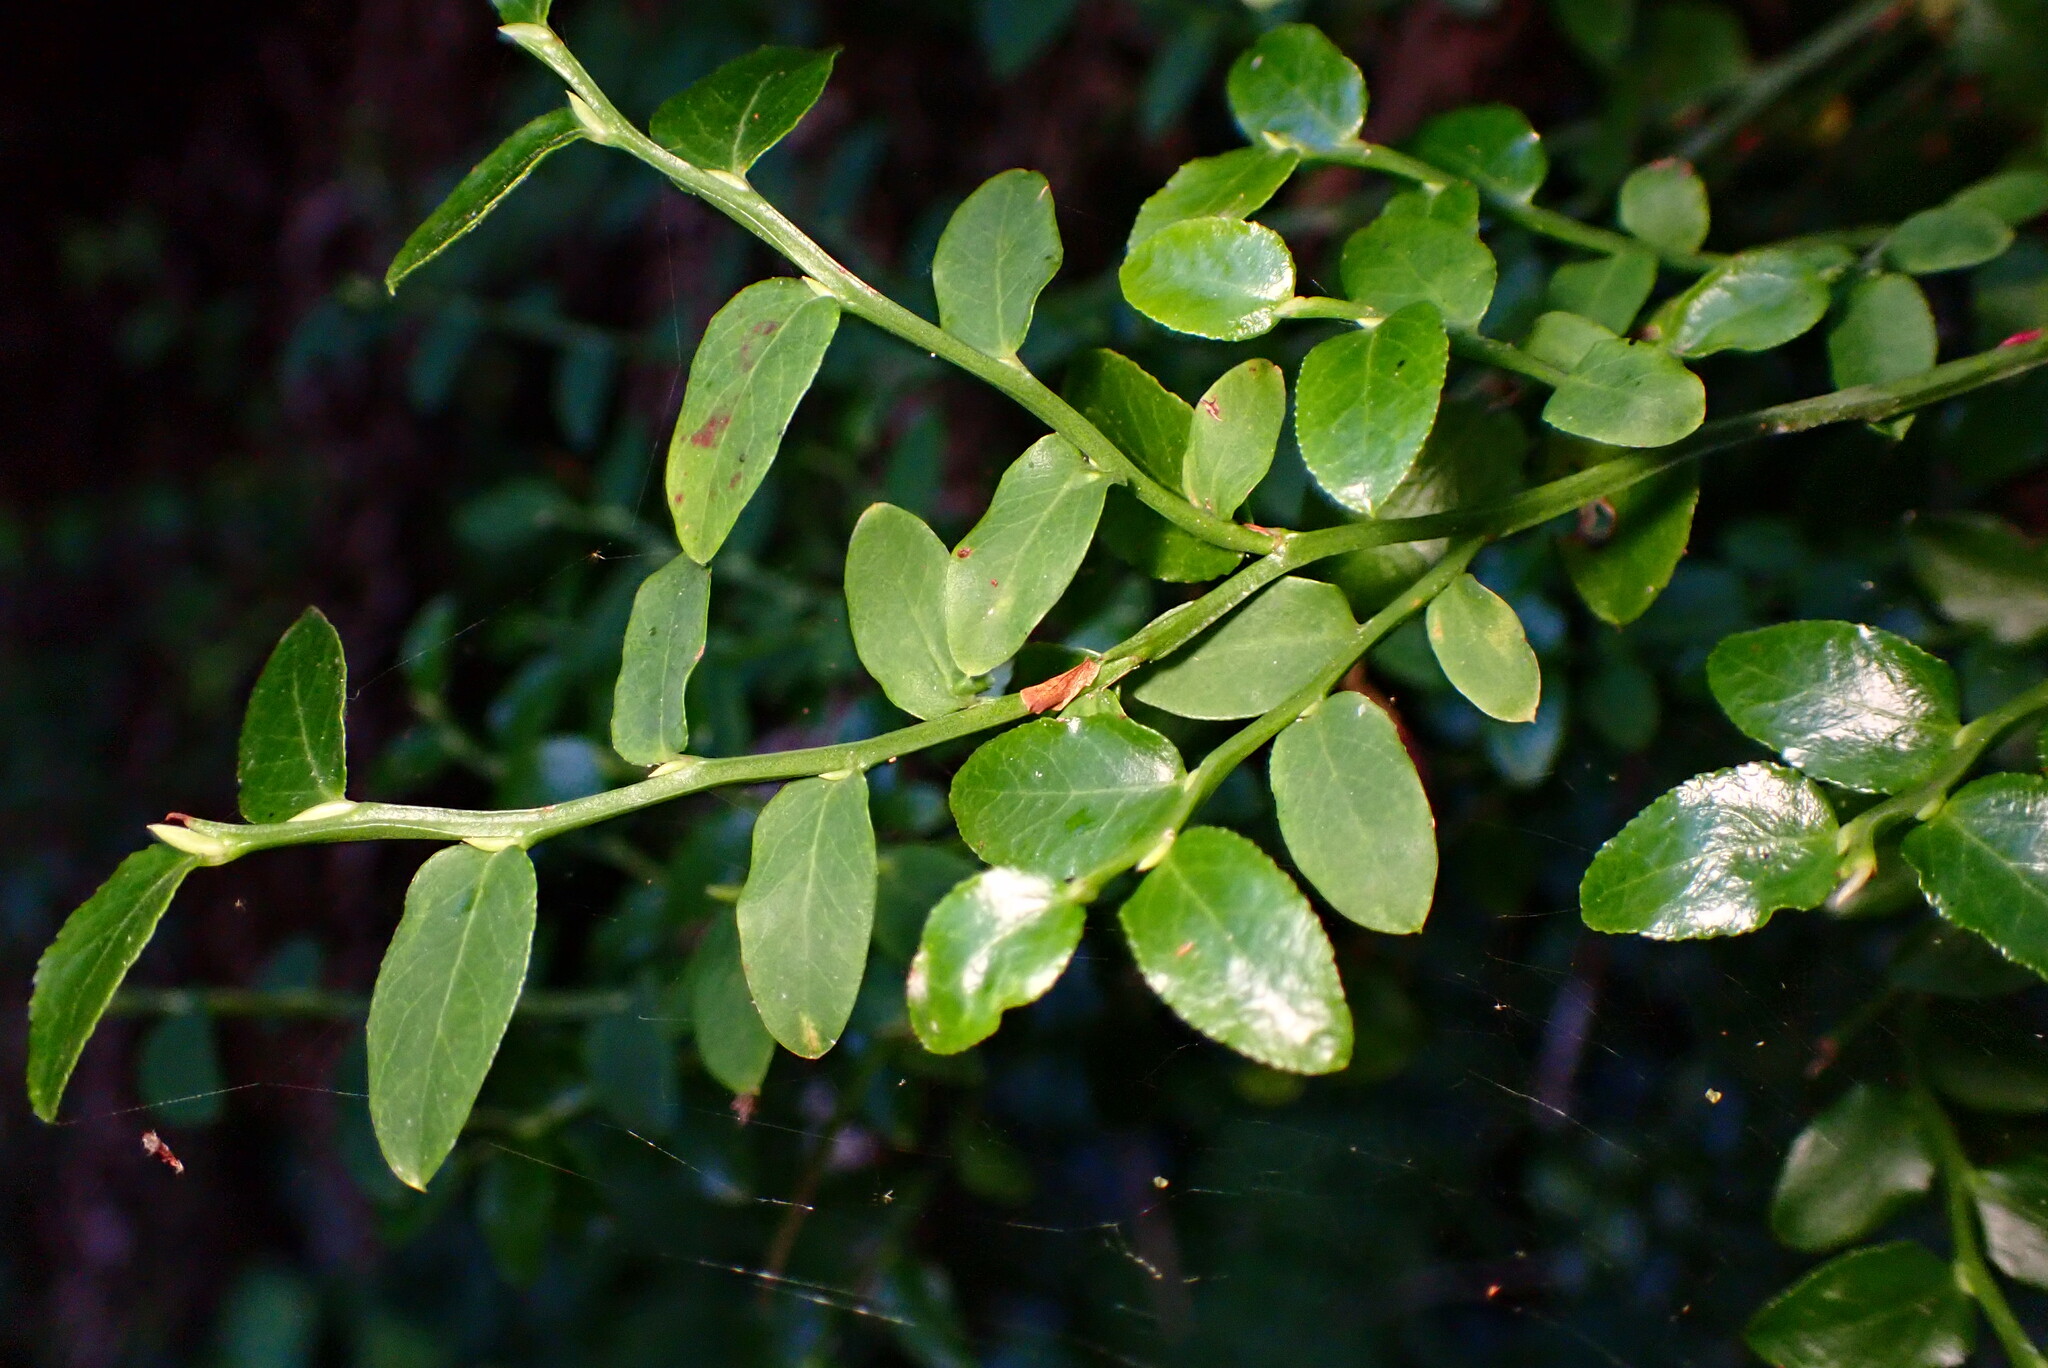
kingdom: Plantae
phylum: Tracheophyta
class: Magnoliopsida
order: Ericales
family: Ericaceae
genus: Vaccinium
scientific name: Vaccinium parvifolium
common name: Red-huckleberry
